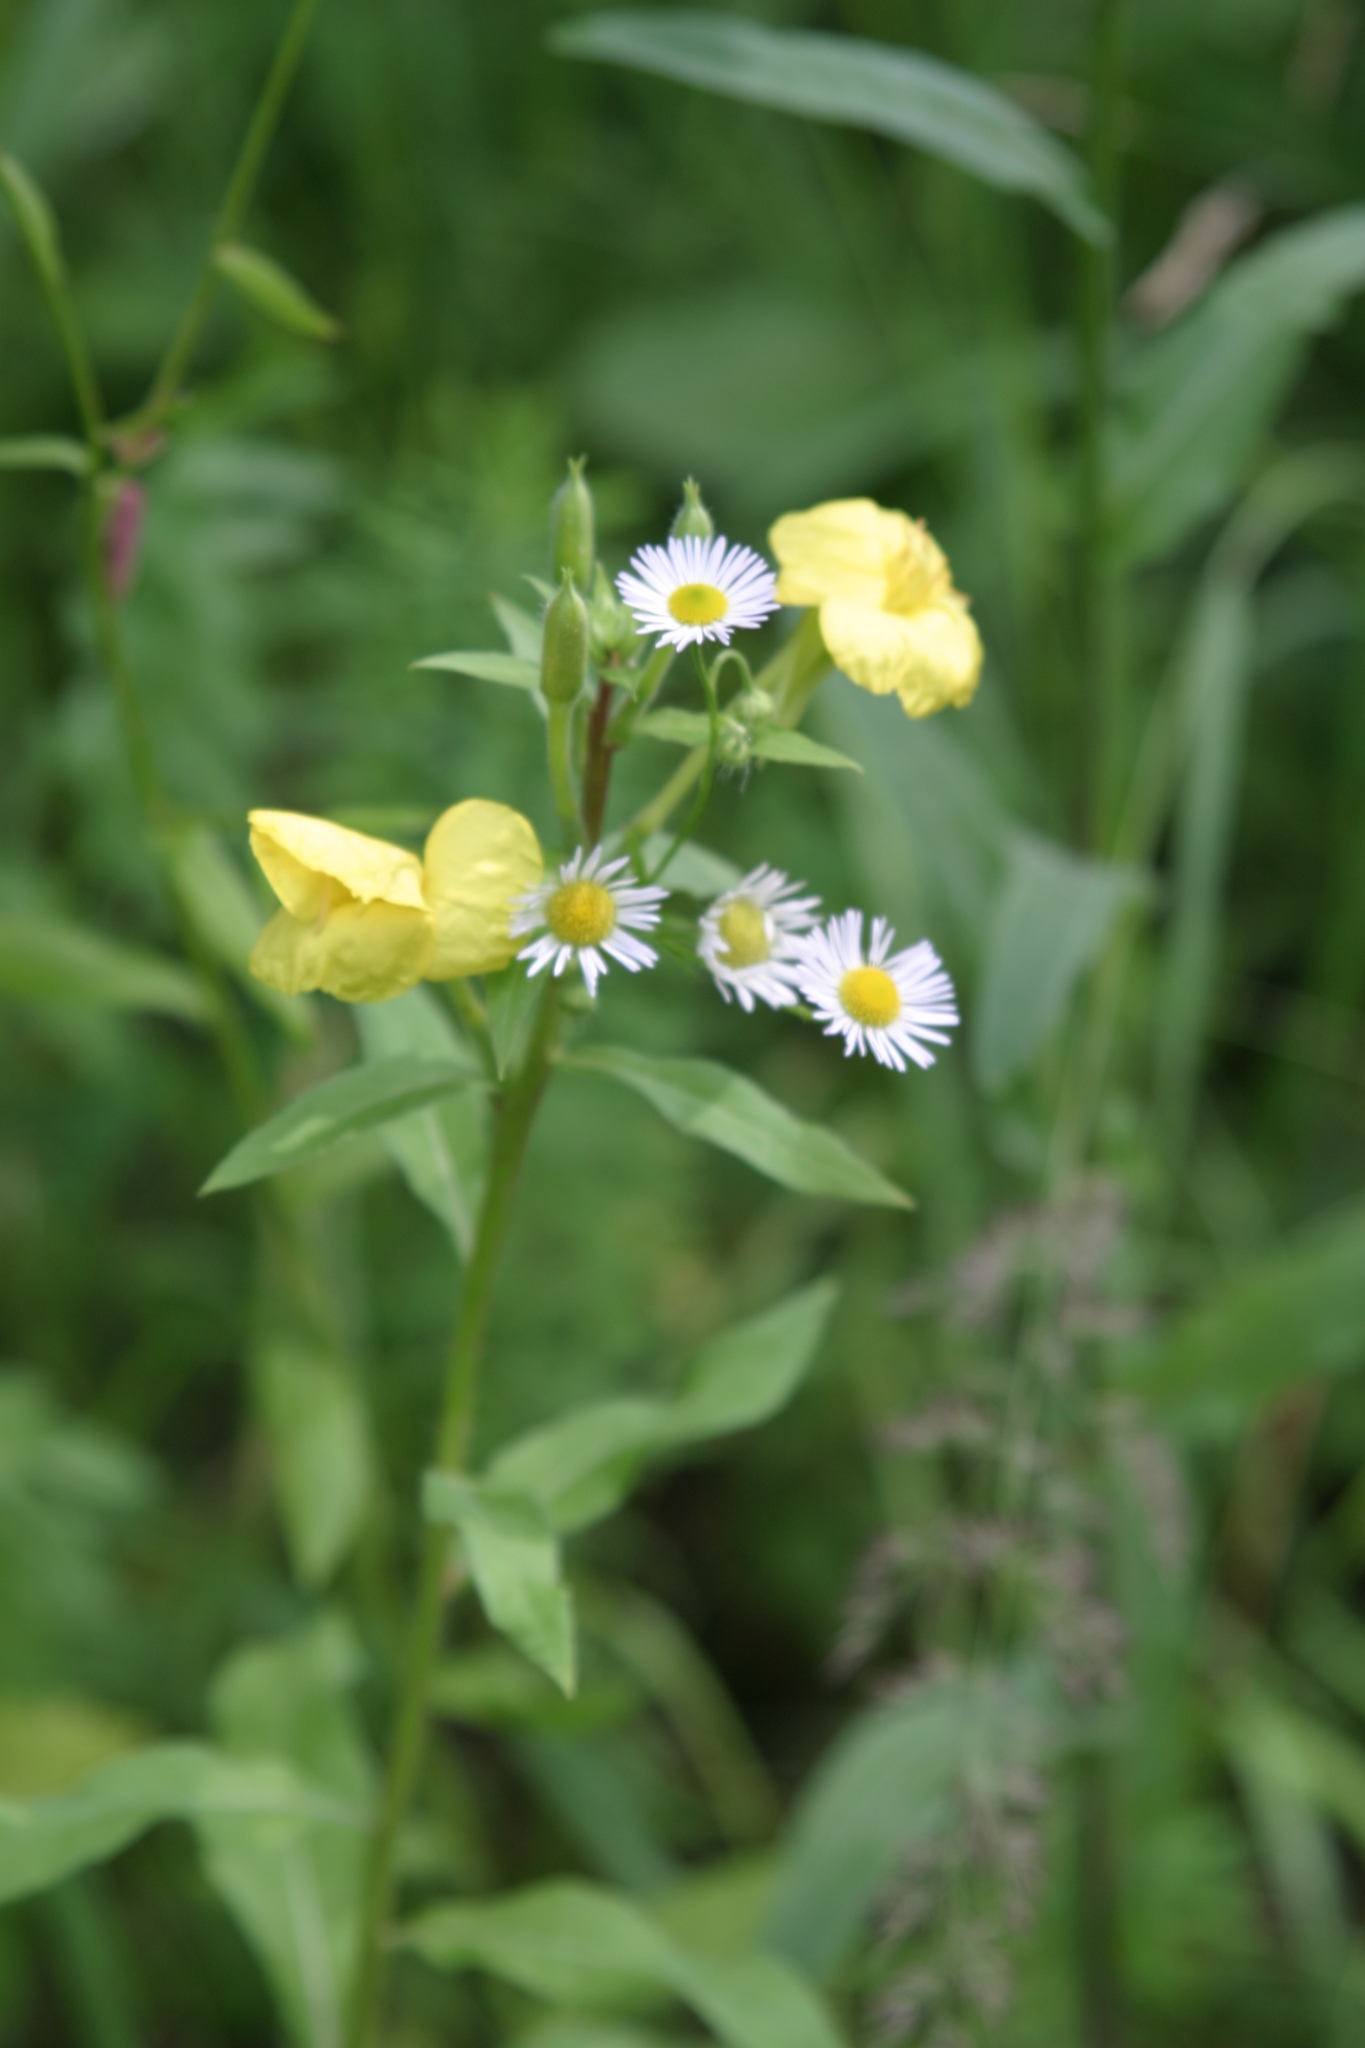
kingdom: Plantae
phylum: Tracheophyta
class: Magnoliopsida
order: Asterales
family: Asteraceae
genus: Erigeron
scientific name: Erigeron annuus
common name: Tall fleabane
